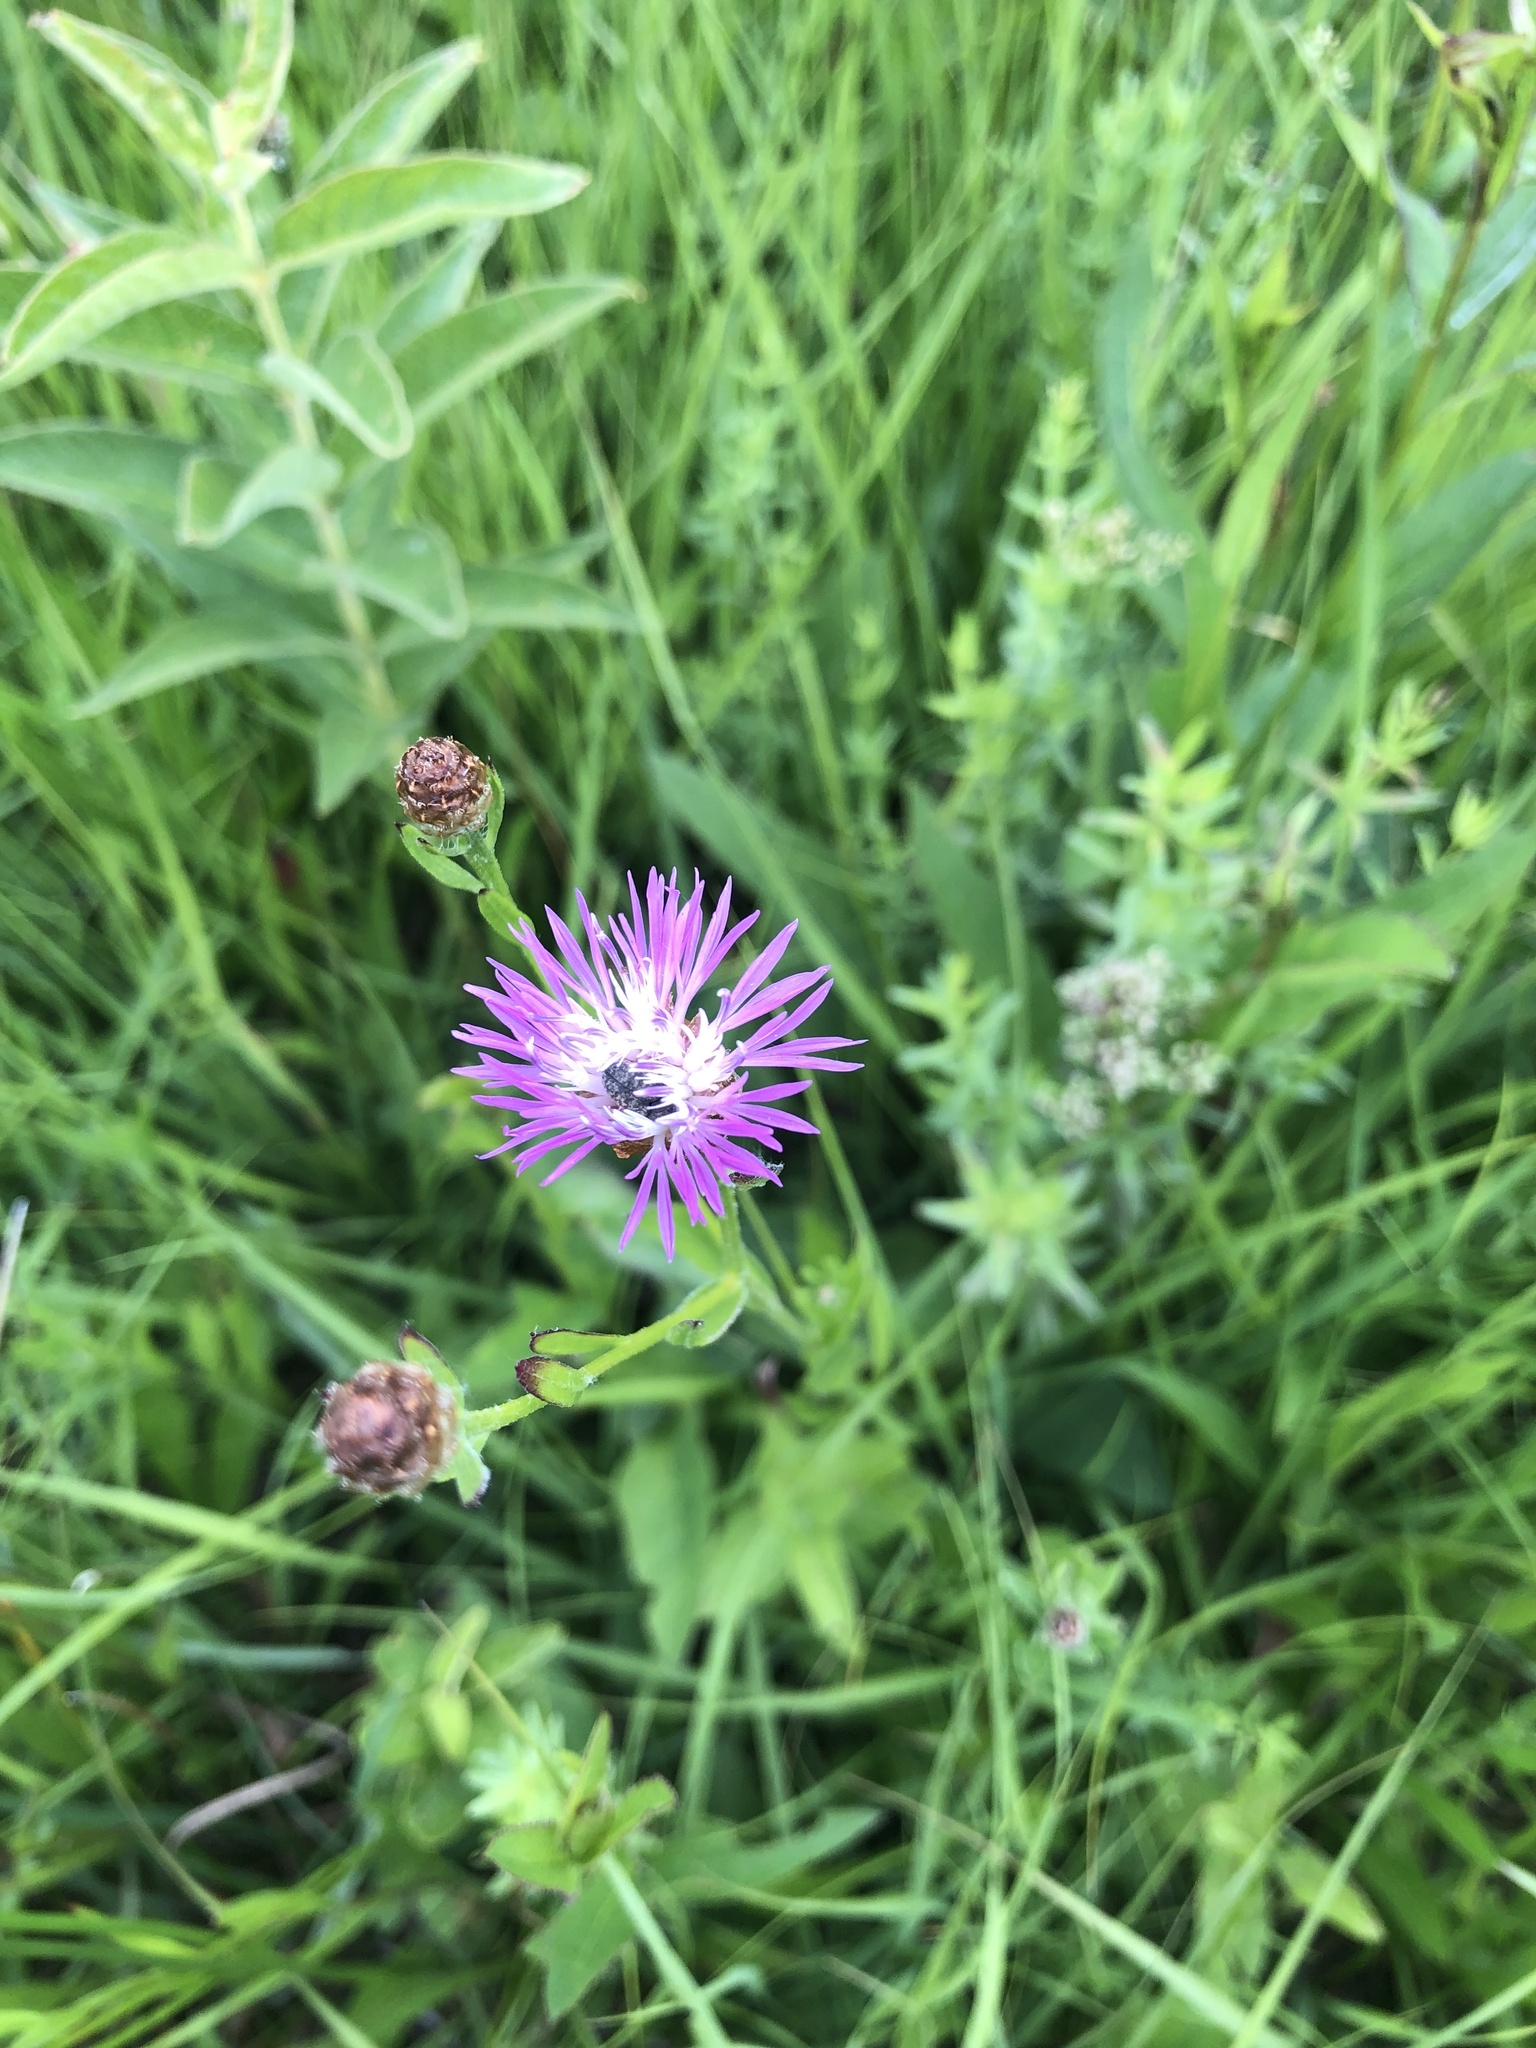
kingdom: Plantae
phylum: Tracheophyta
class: Magnoliopsida
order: Asterales
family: Asteraceae
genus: Centaurea
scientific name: Centaurea jacea
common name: Brown knapweed
